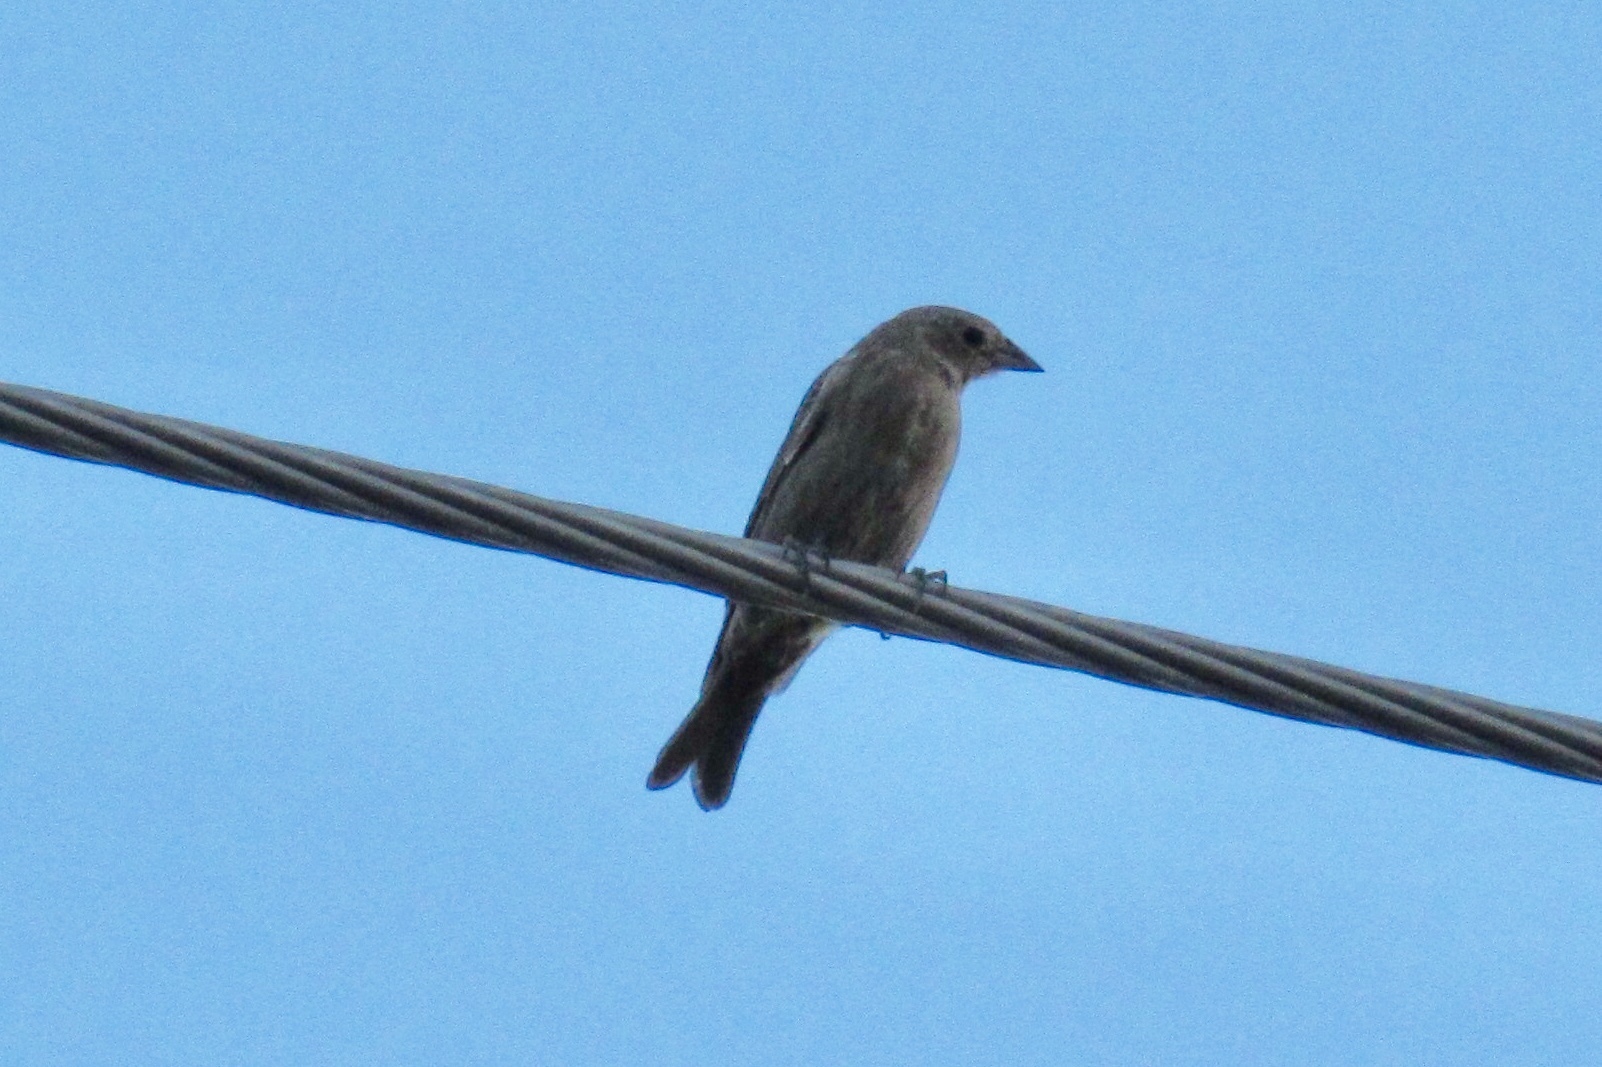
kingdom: Animalia
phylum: Chordata
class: Aves
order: Passeriformes
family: Icteridae
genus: Molothrus
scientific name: Molothrus ater
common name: Brown-headed cowbird
